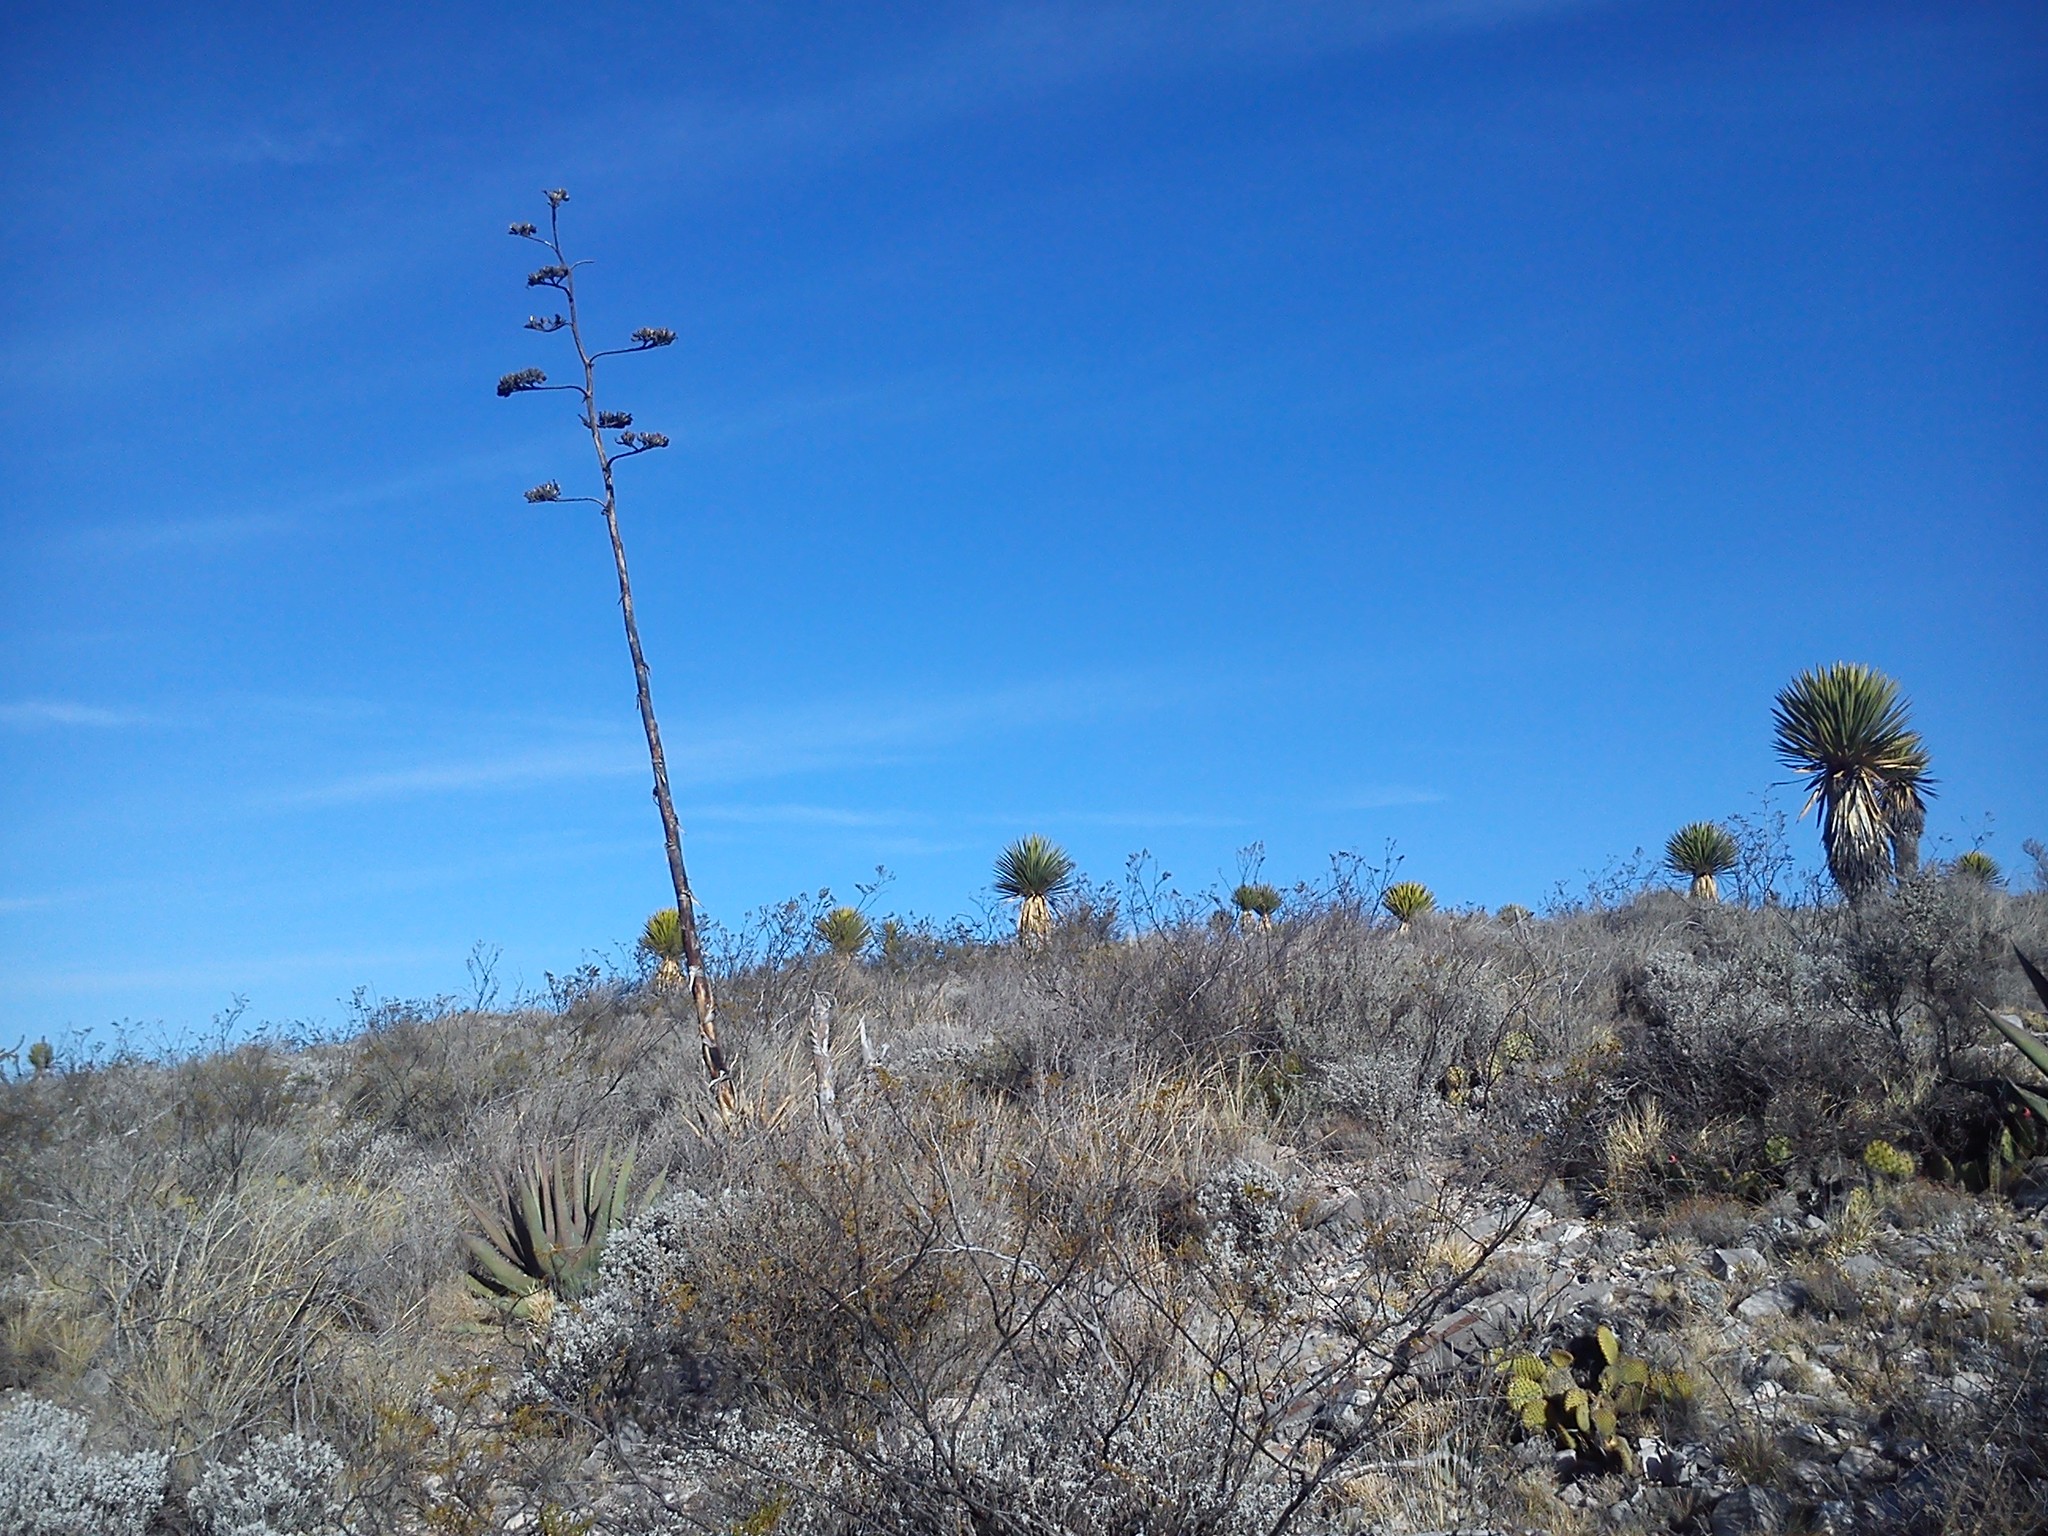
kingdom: Plantae
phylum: Tracheophyta
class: Liliopsida
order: Asparagales
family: Asparagaceae
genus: Agave
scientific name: Agave asperrima
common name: Rough agave
